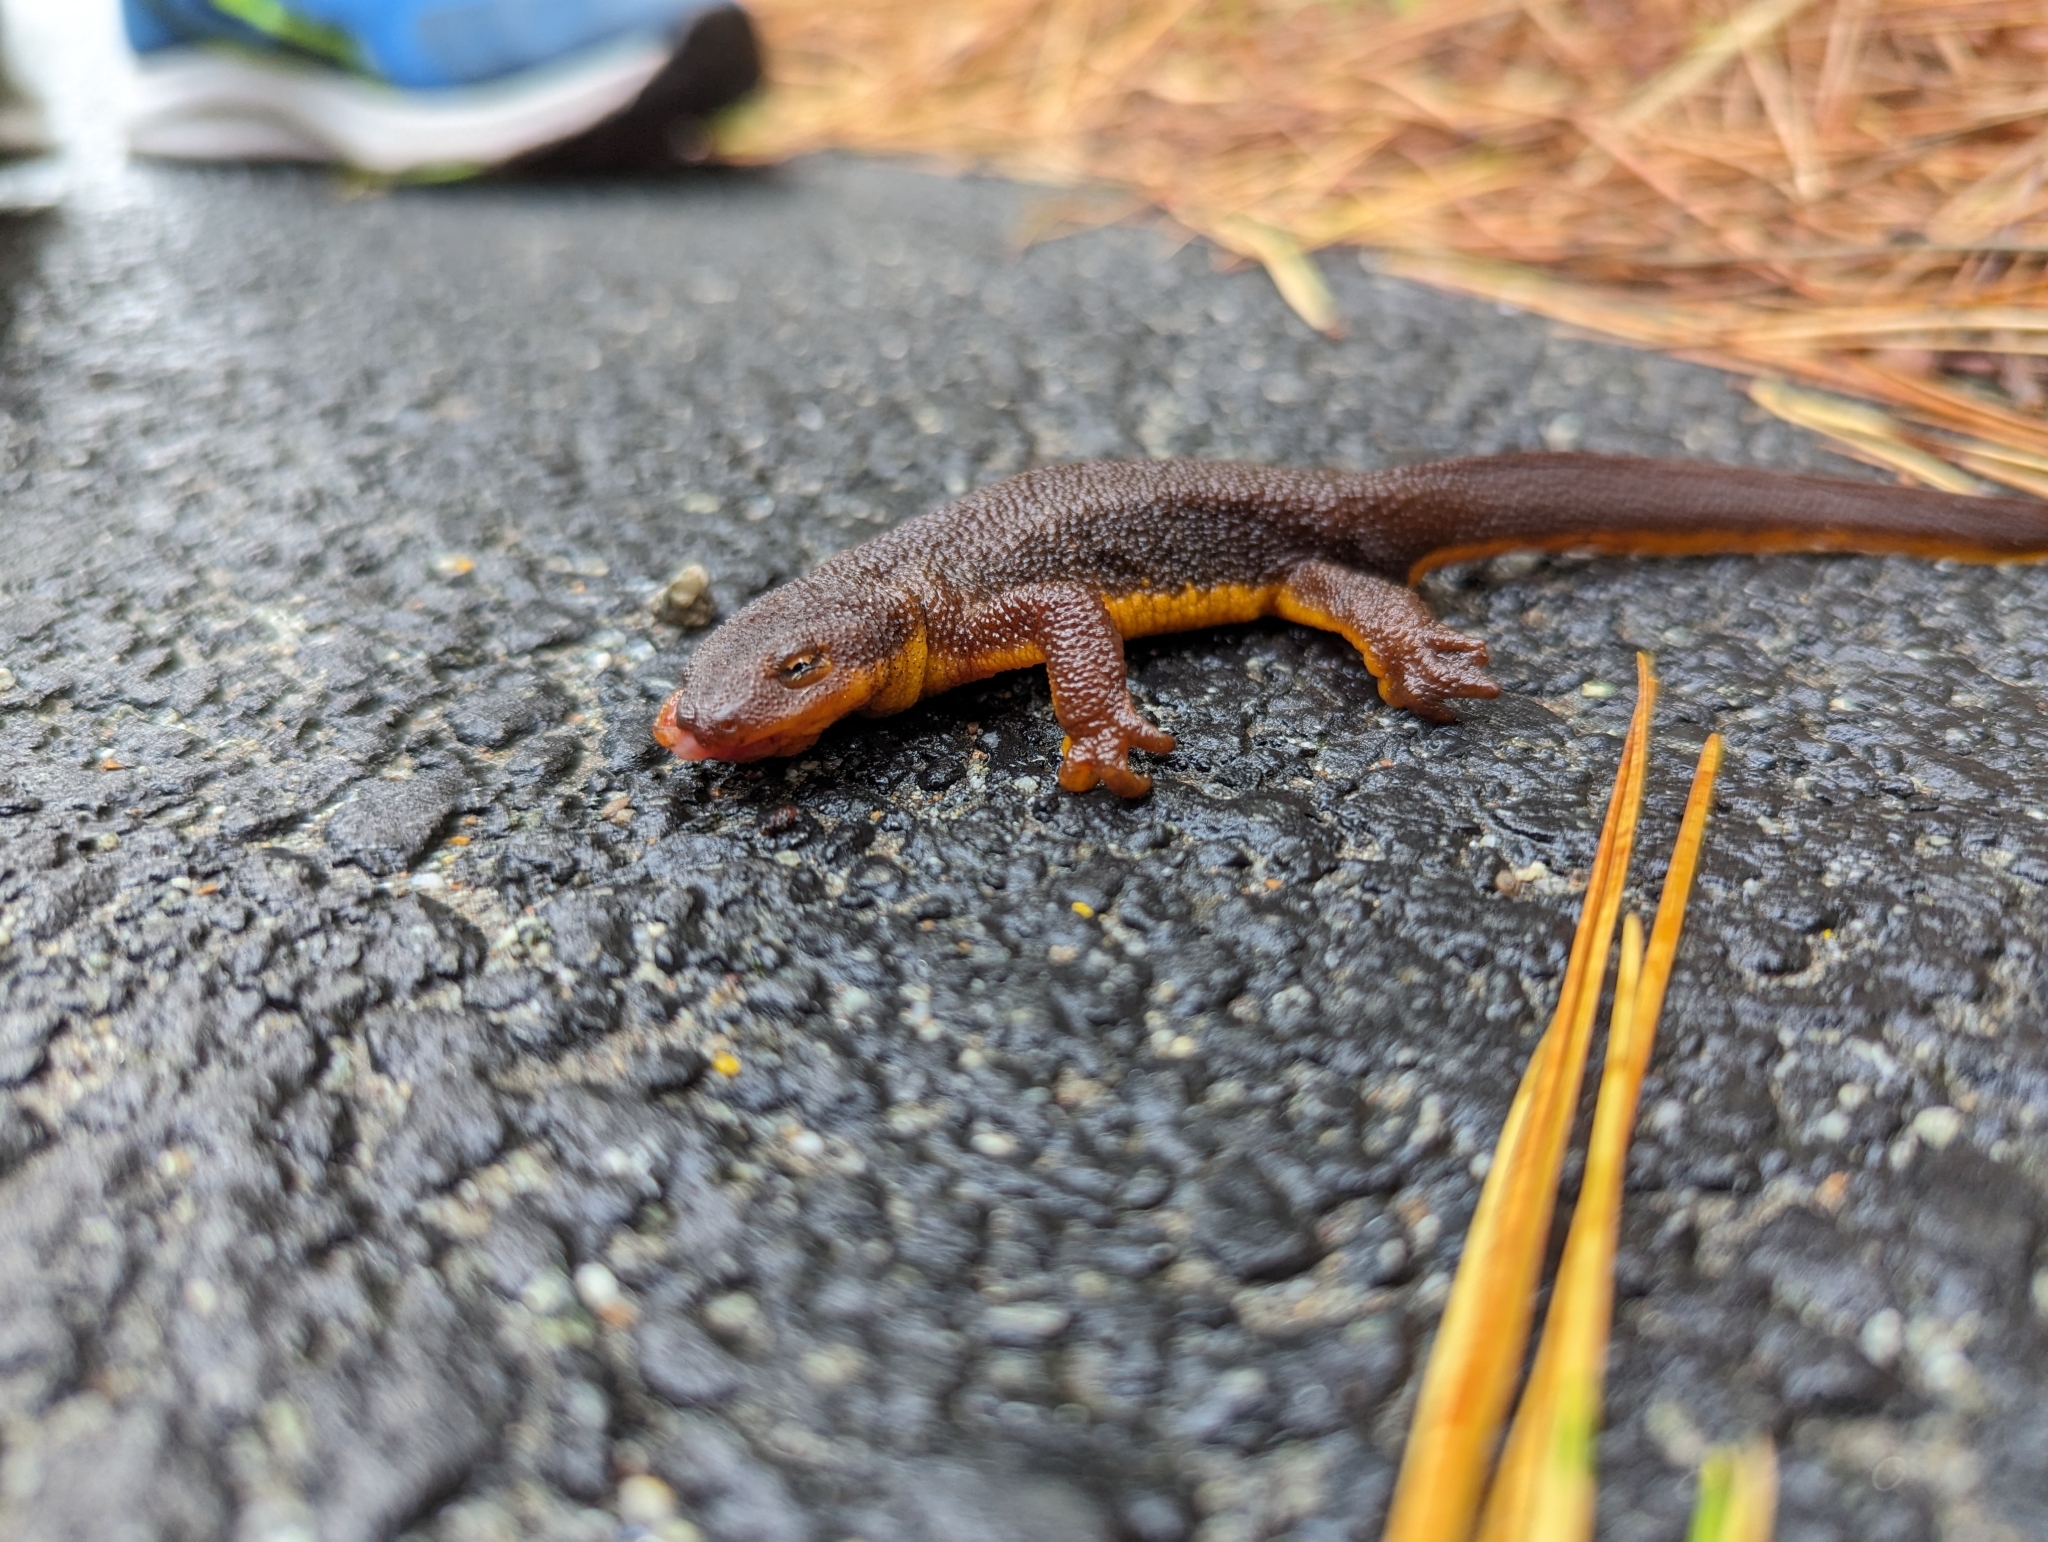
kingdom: Animalia
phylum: Chordata
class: Amphibia
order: Caudata
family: Salamandridae
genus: Taricha
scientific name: Taricha
